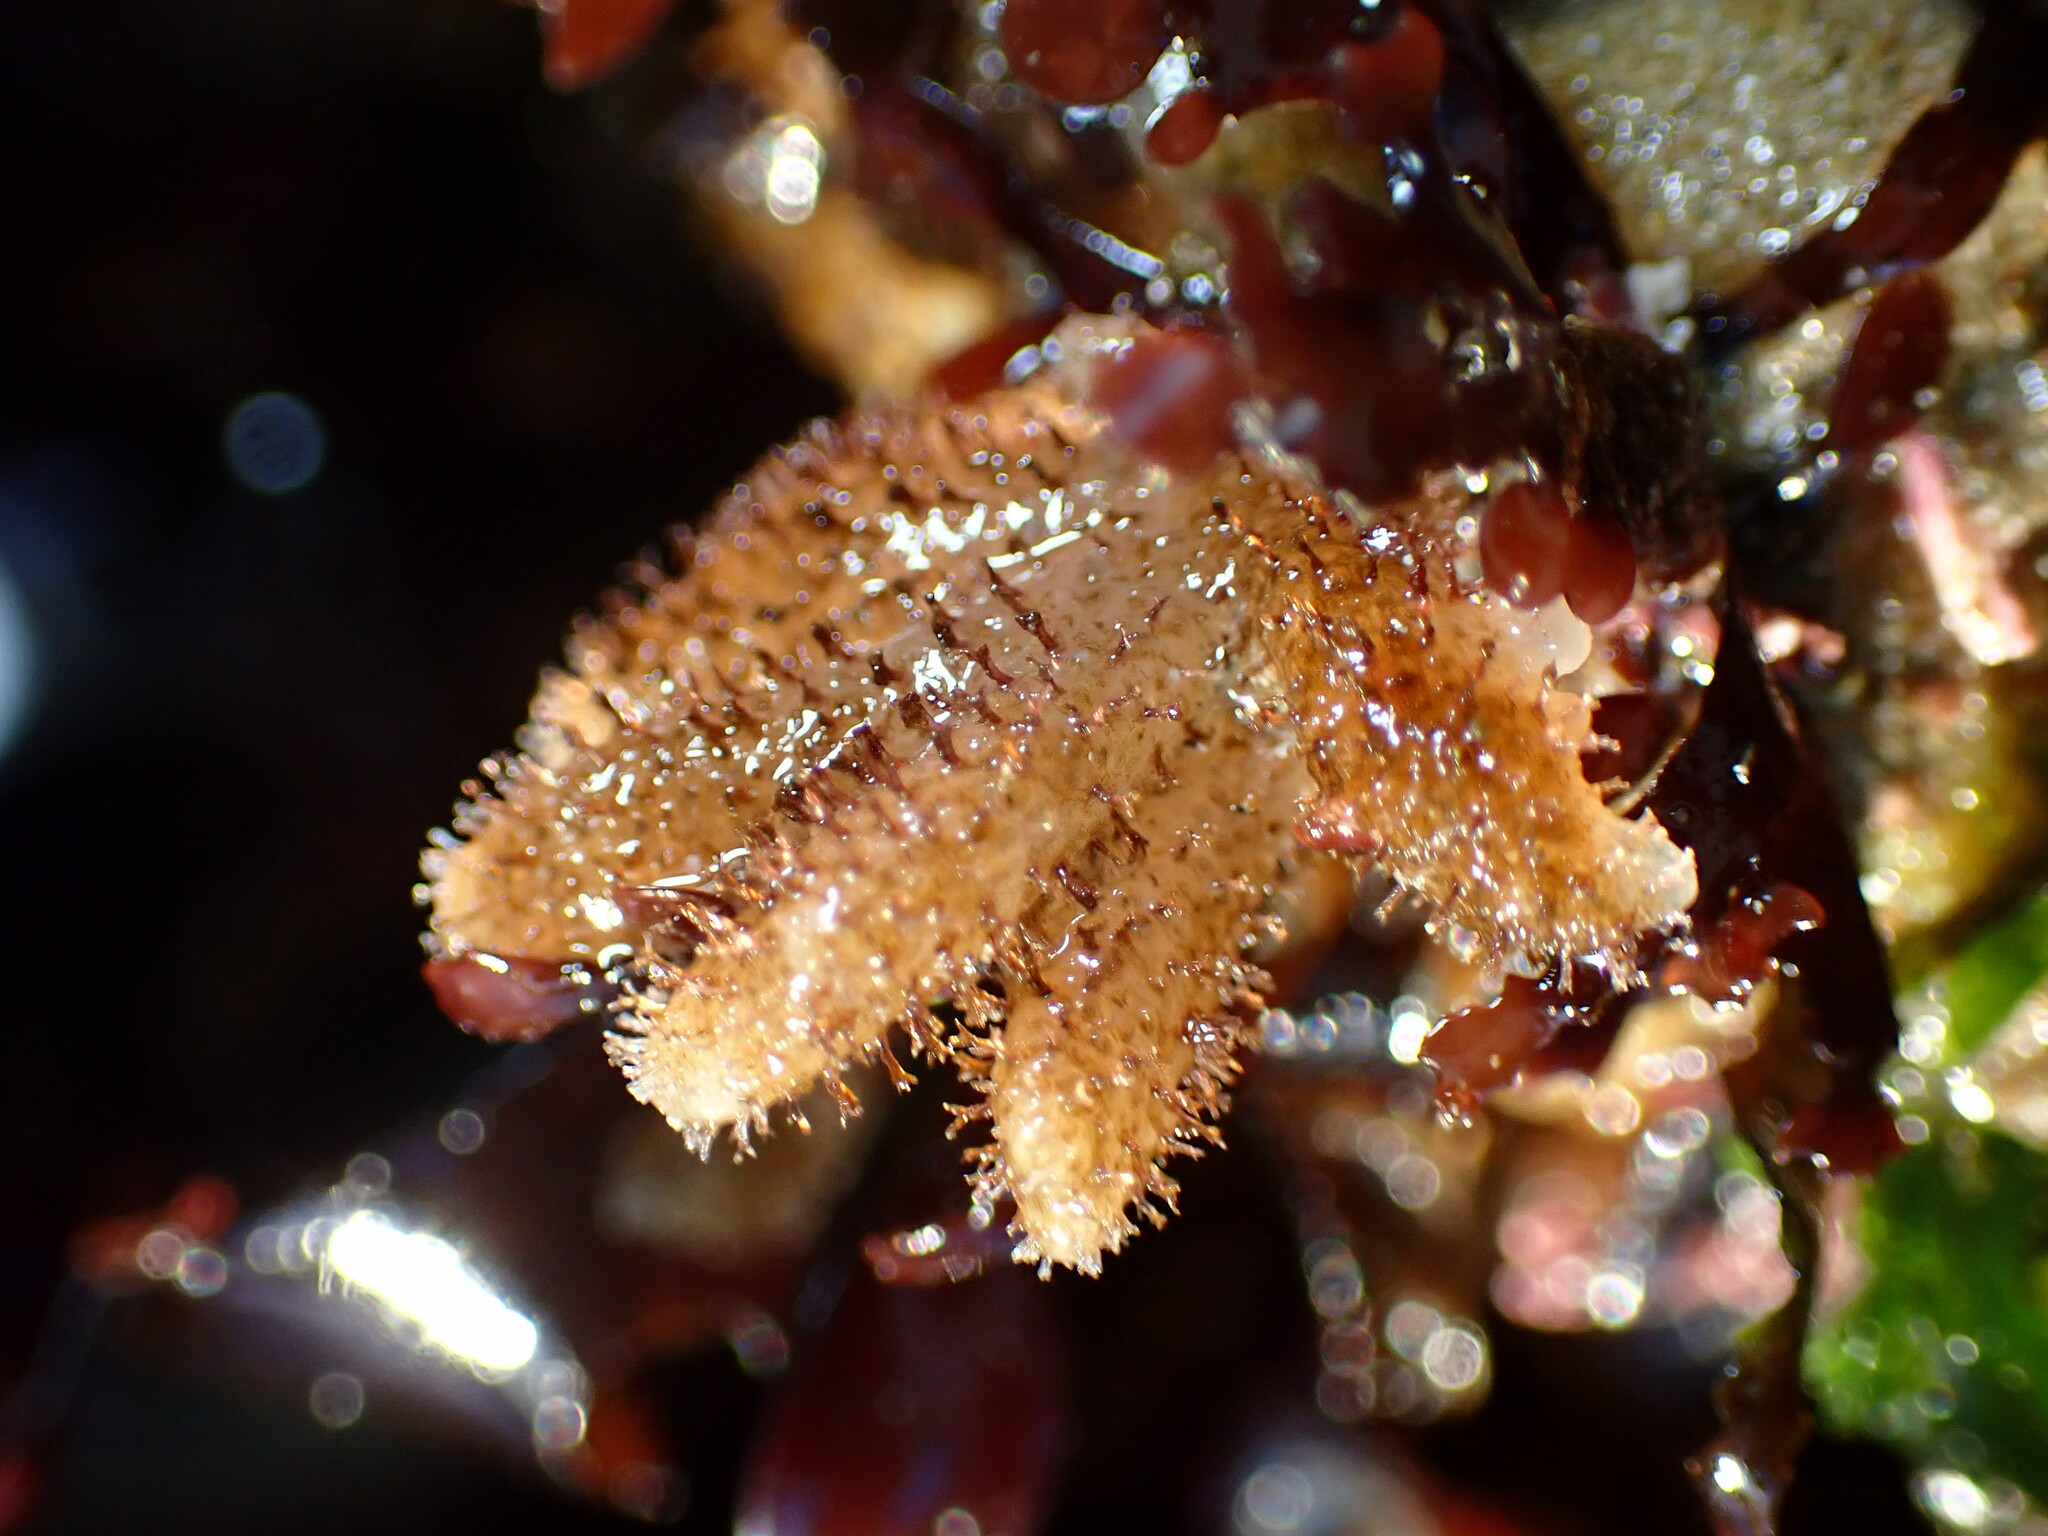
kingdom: Animalia
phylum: Bryozoa
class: Gymnolaemata
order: Ctenostomatida
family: Flustrellidridae
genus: Flustrellidra
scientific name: Flustrellidra corniculata
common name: Spiny leather bryozoan
